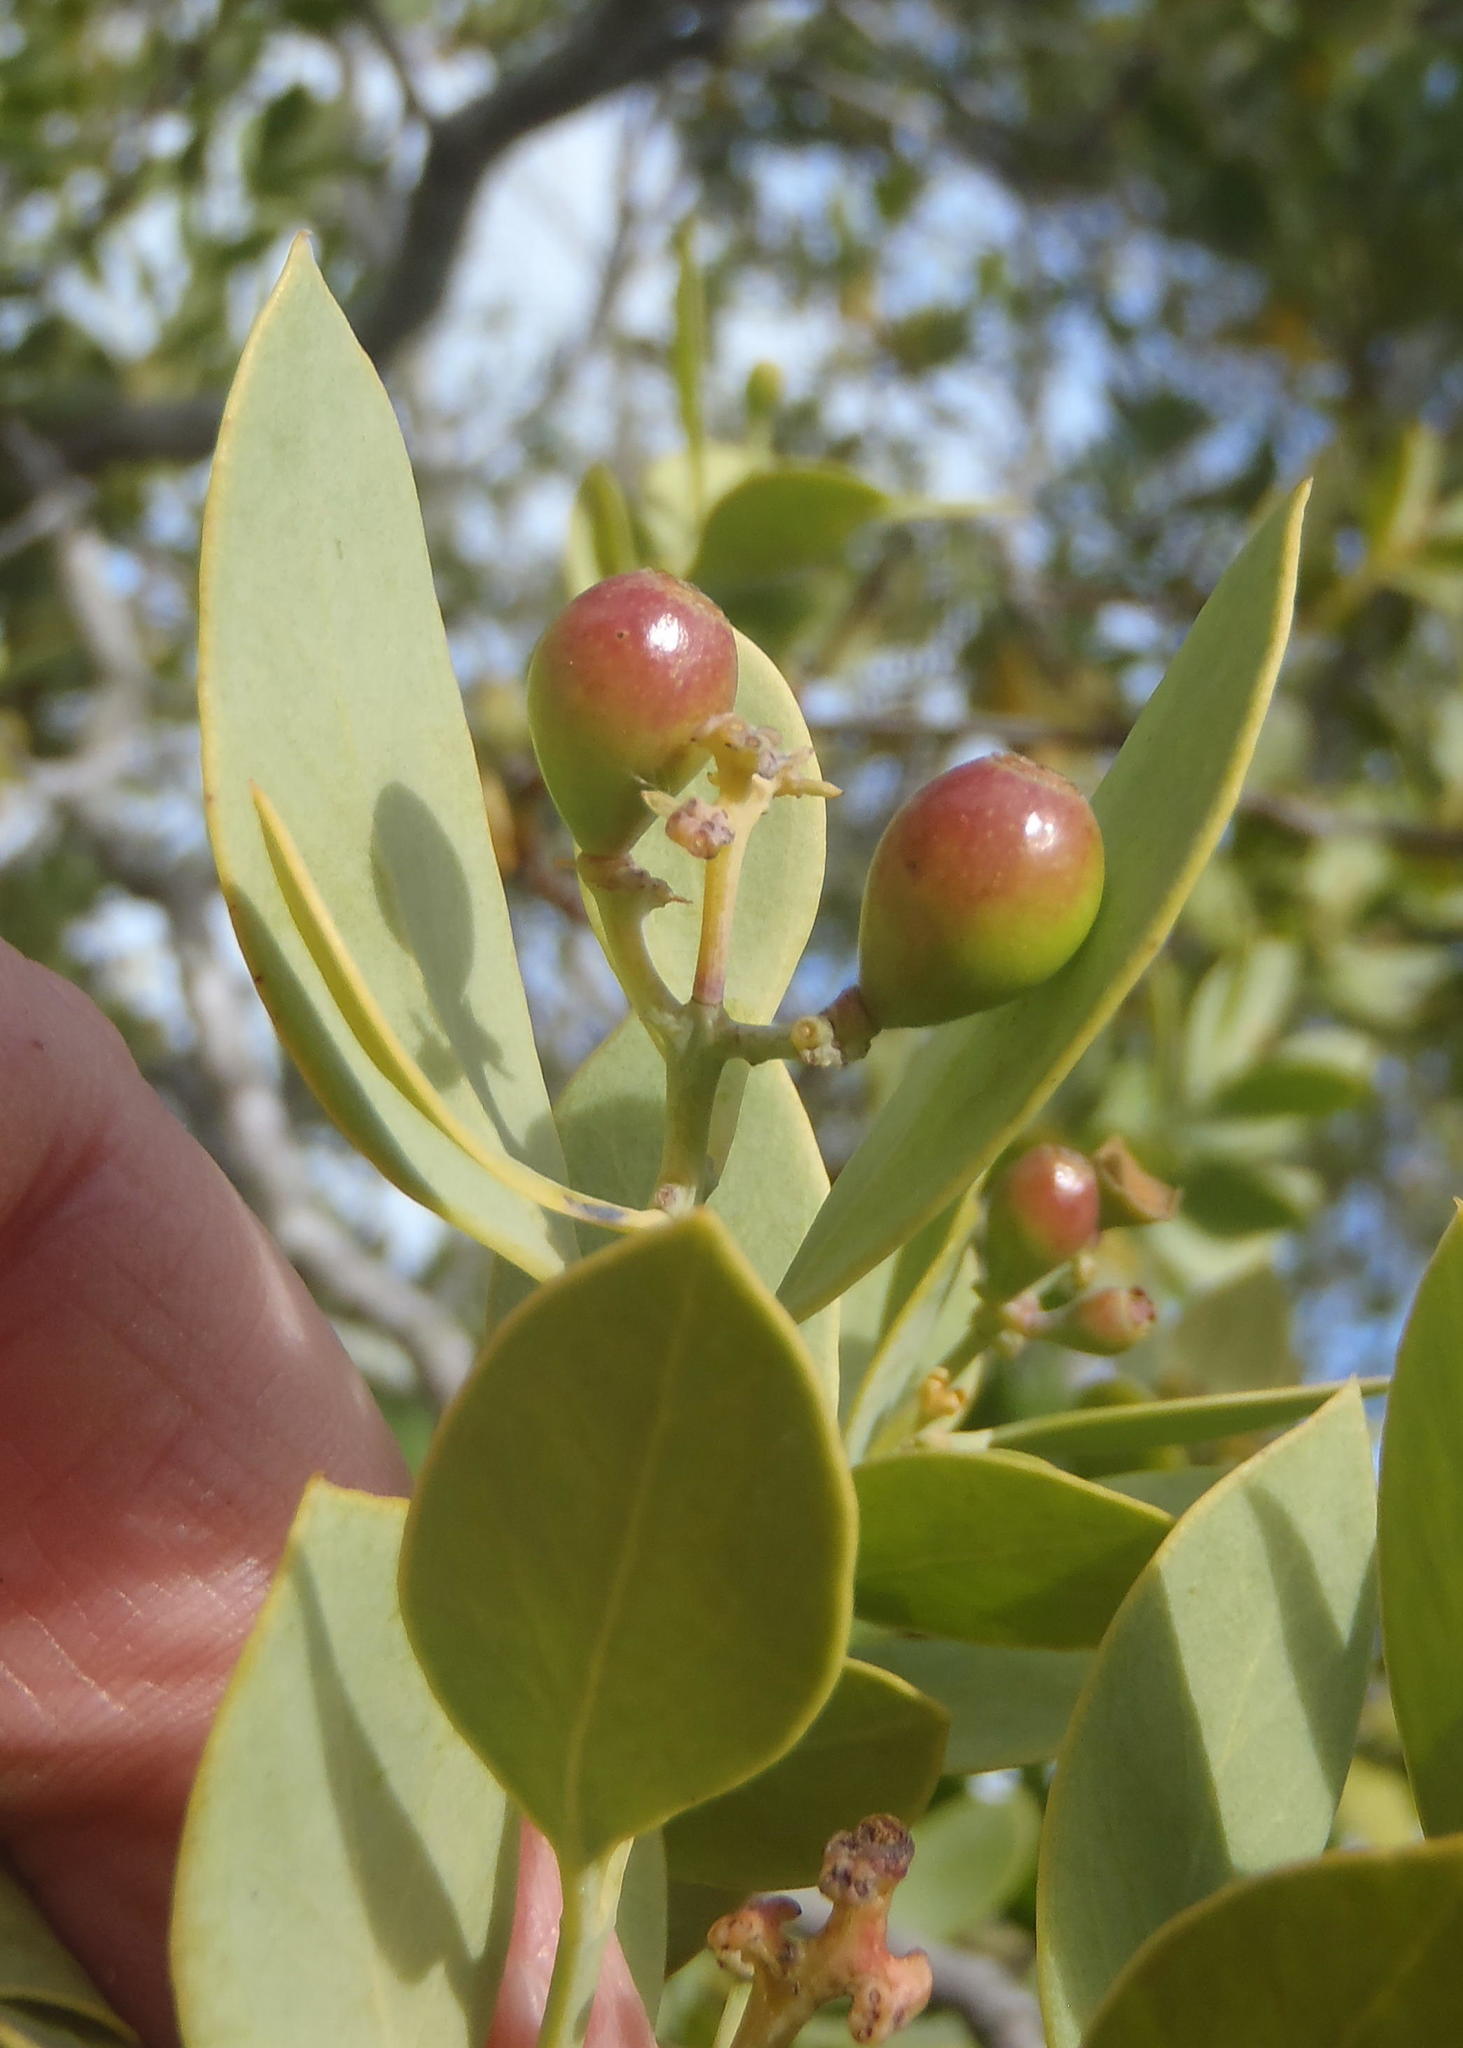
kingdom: Plantae
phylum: Tracheophyta
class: Magnoliopsida
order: Santalales
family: Santalaceae
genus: Osyris
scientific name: Osyris compressa
